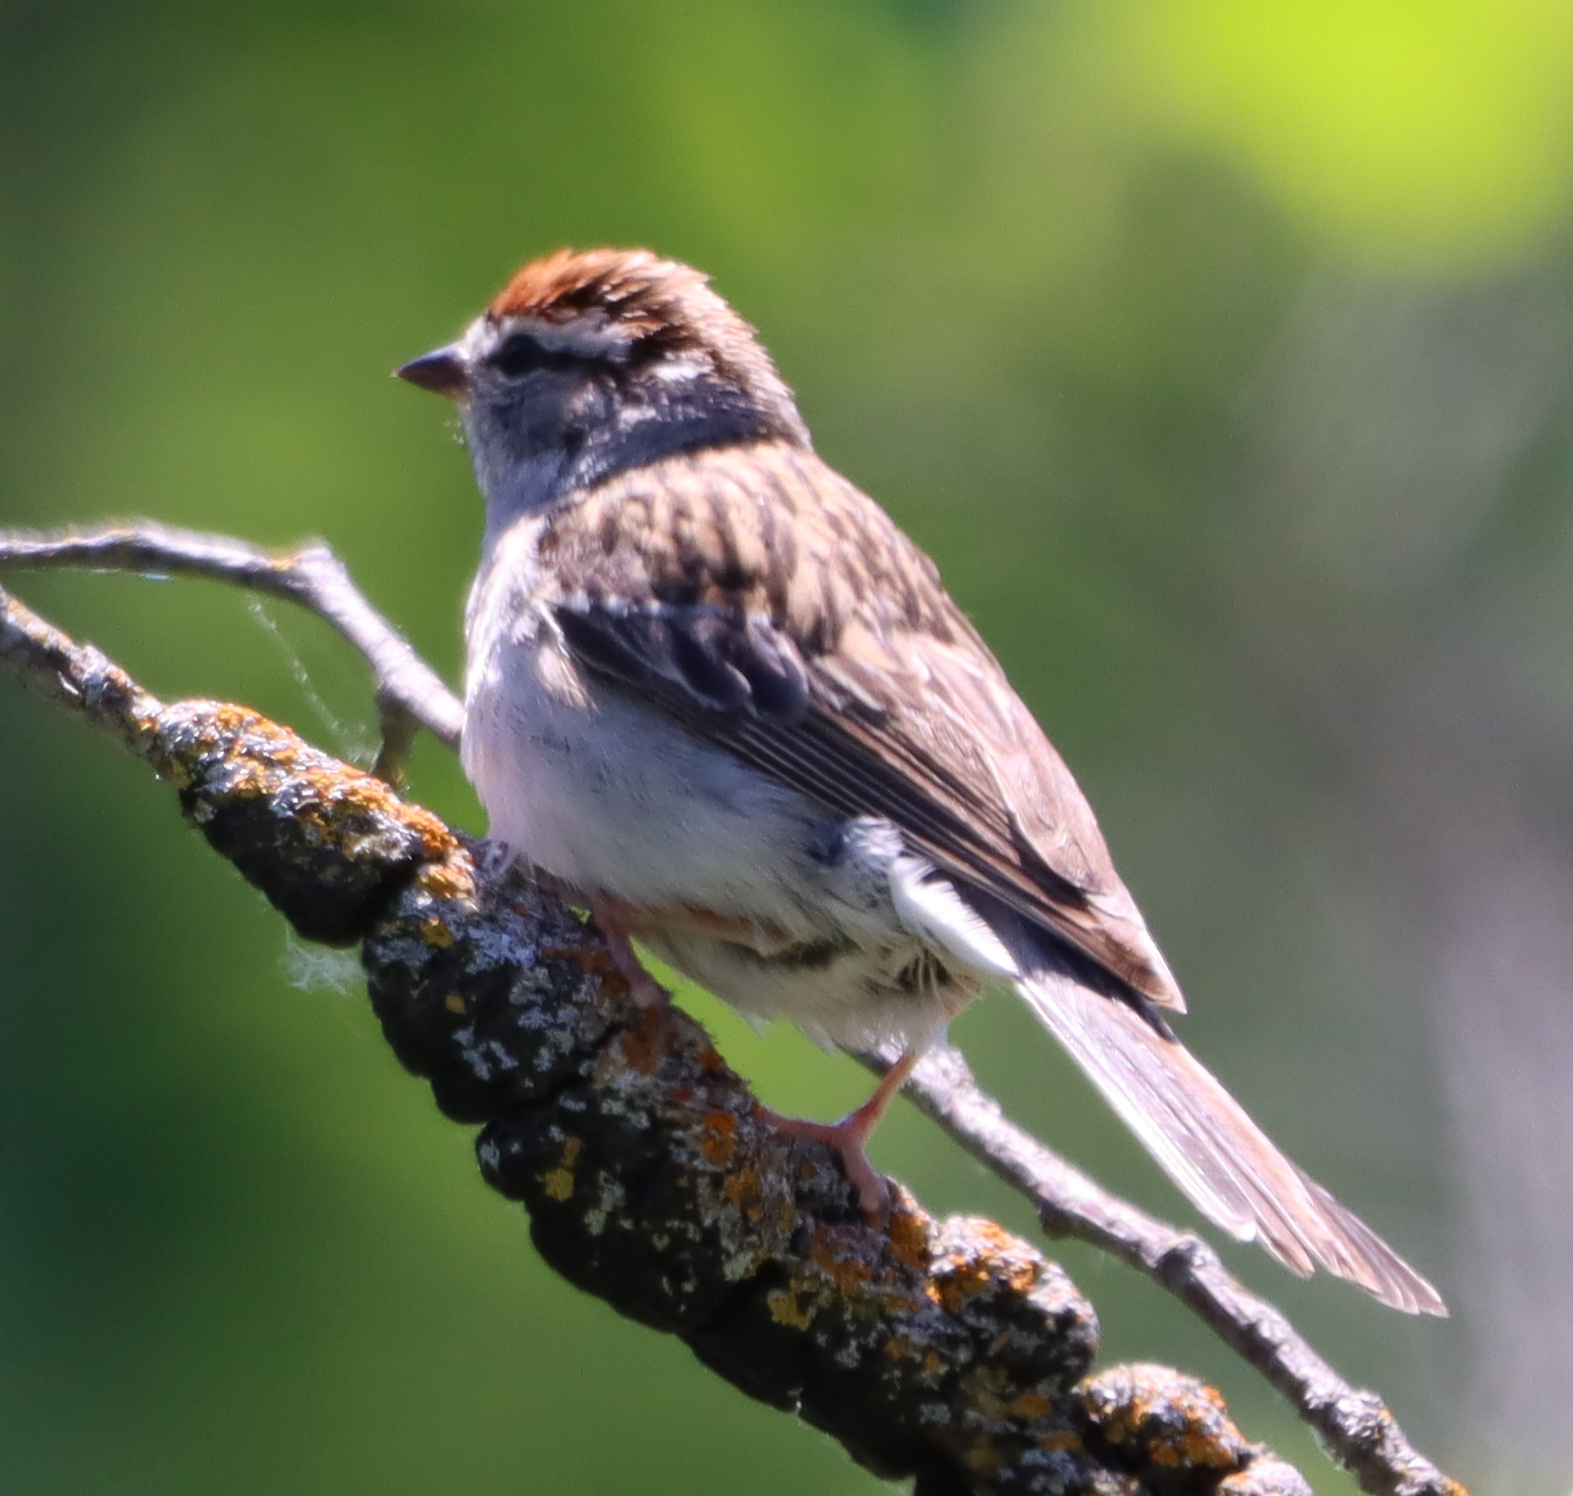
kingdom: Animalia
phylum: Chordata
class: Aves
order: Passeriformes
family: Passerellidae
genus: Spizella
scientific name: Spizella passerina
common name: Chipping sparrow
